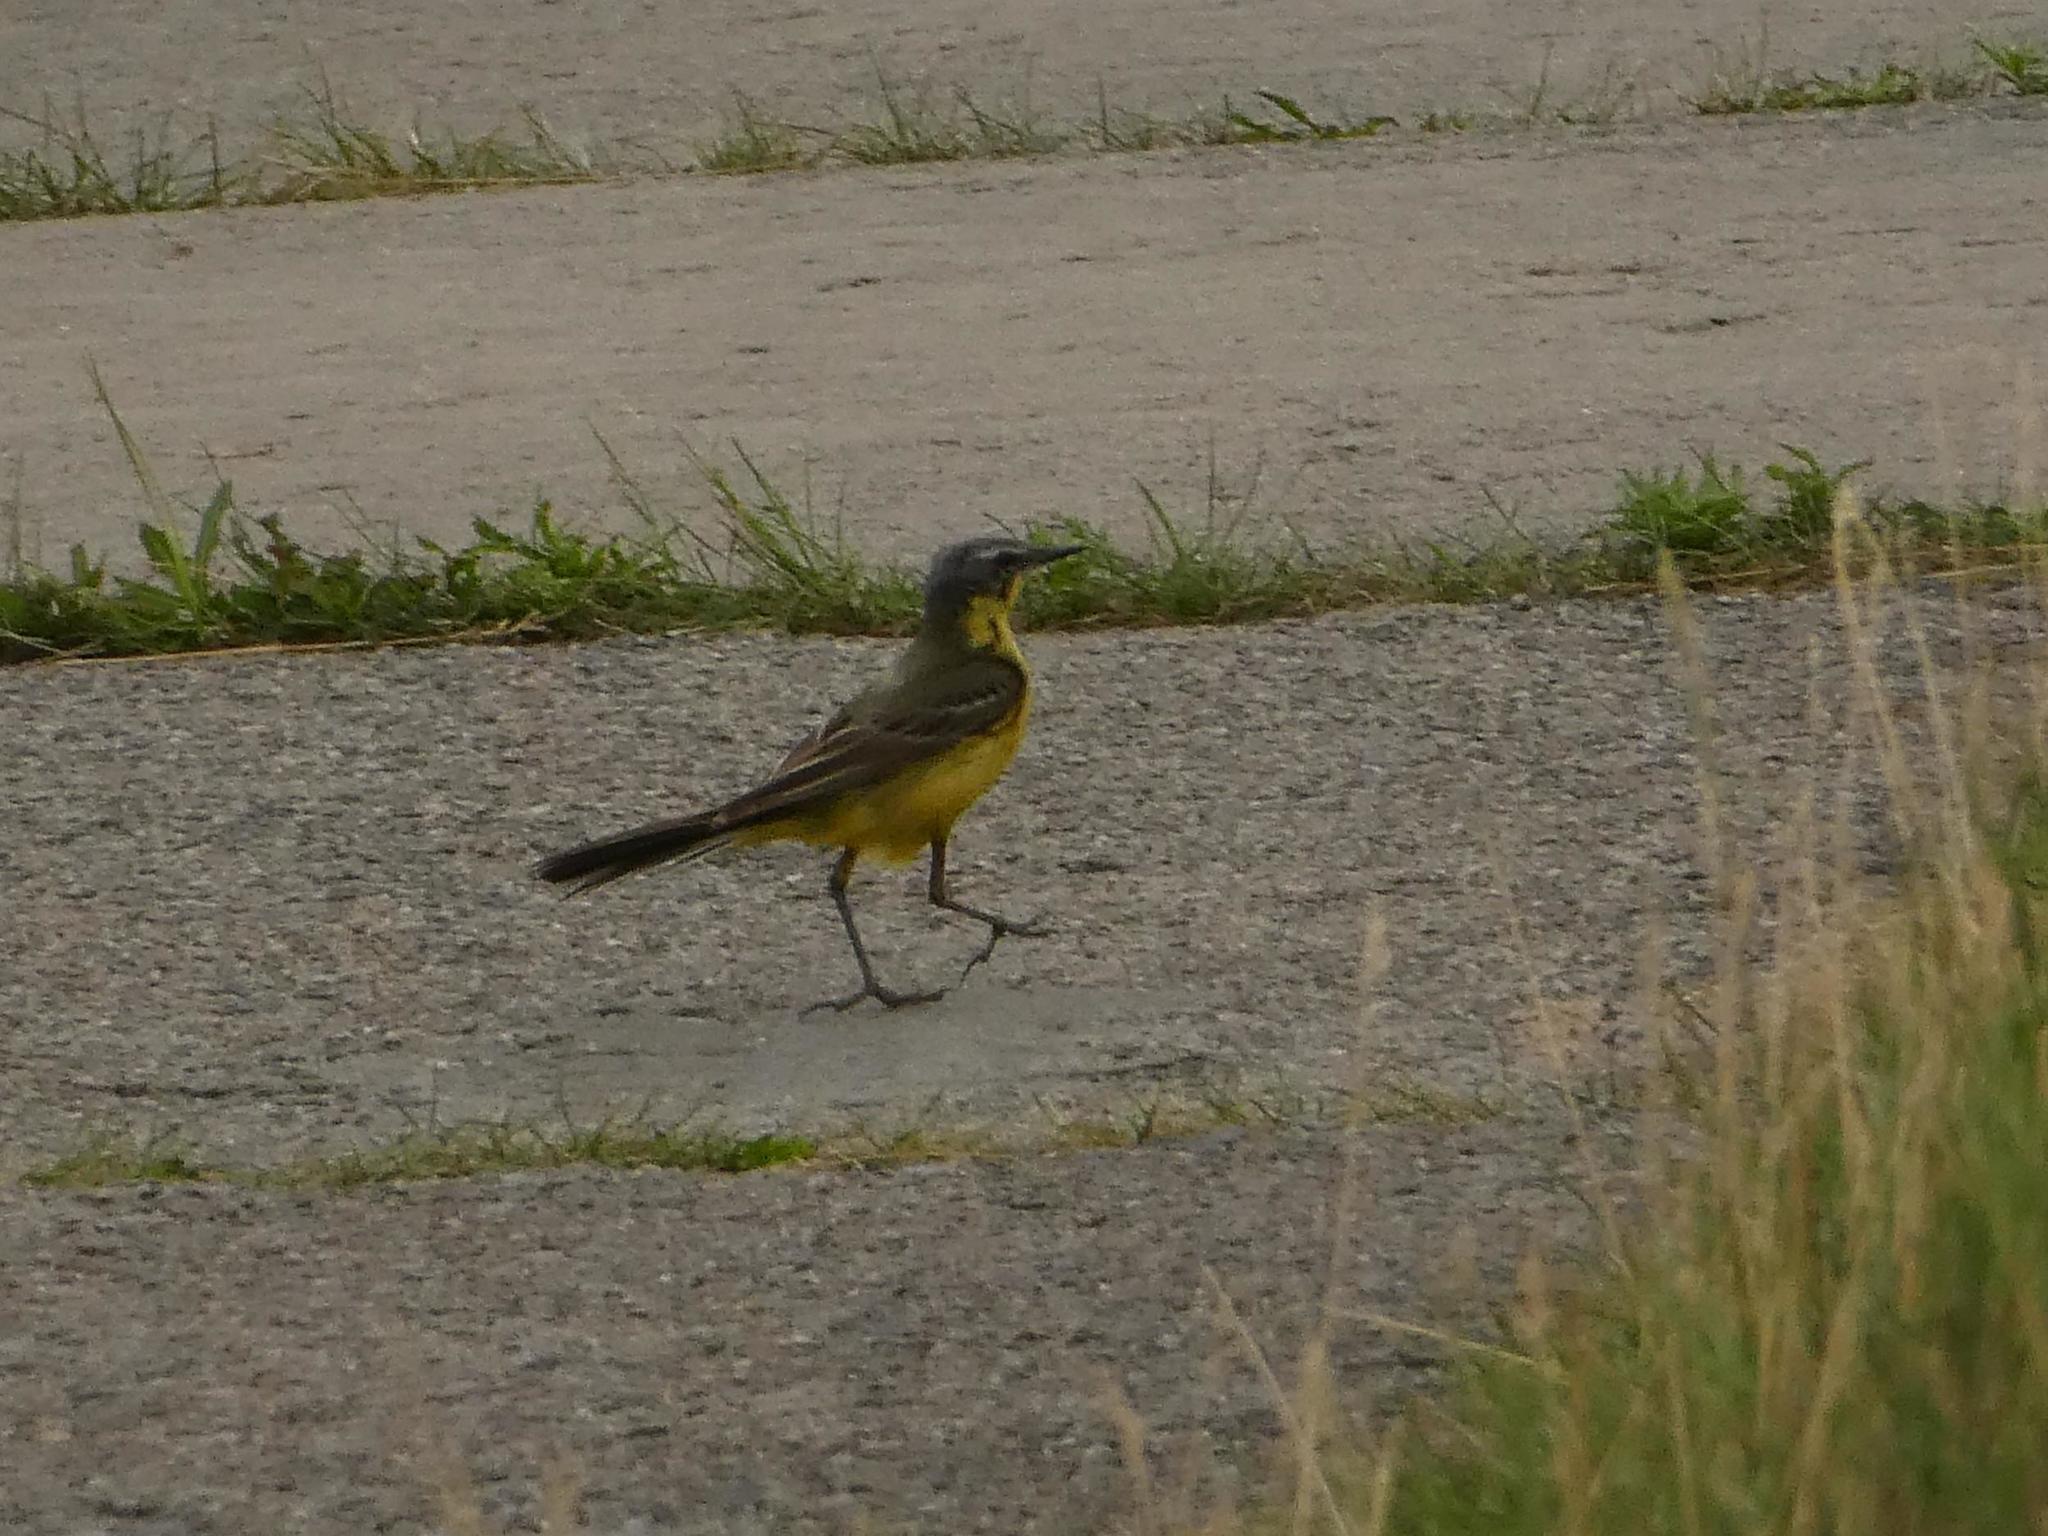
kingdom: Animalia
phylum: Chordata
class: Aves
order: Passeriformes
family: Motacillidae
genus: Motacilla
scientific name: Motacilla flava
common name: Western yellow wagtail
